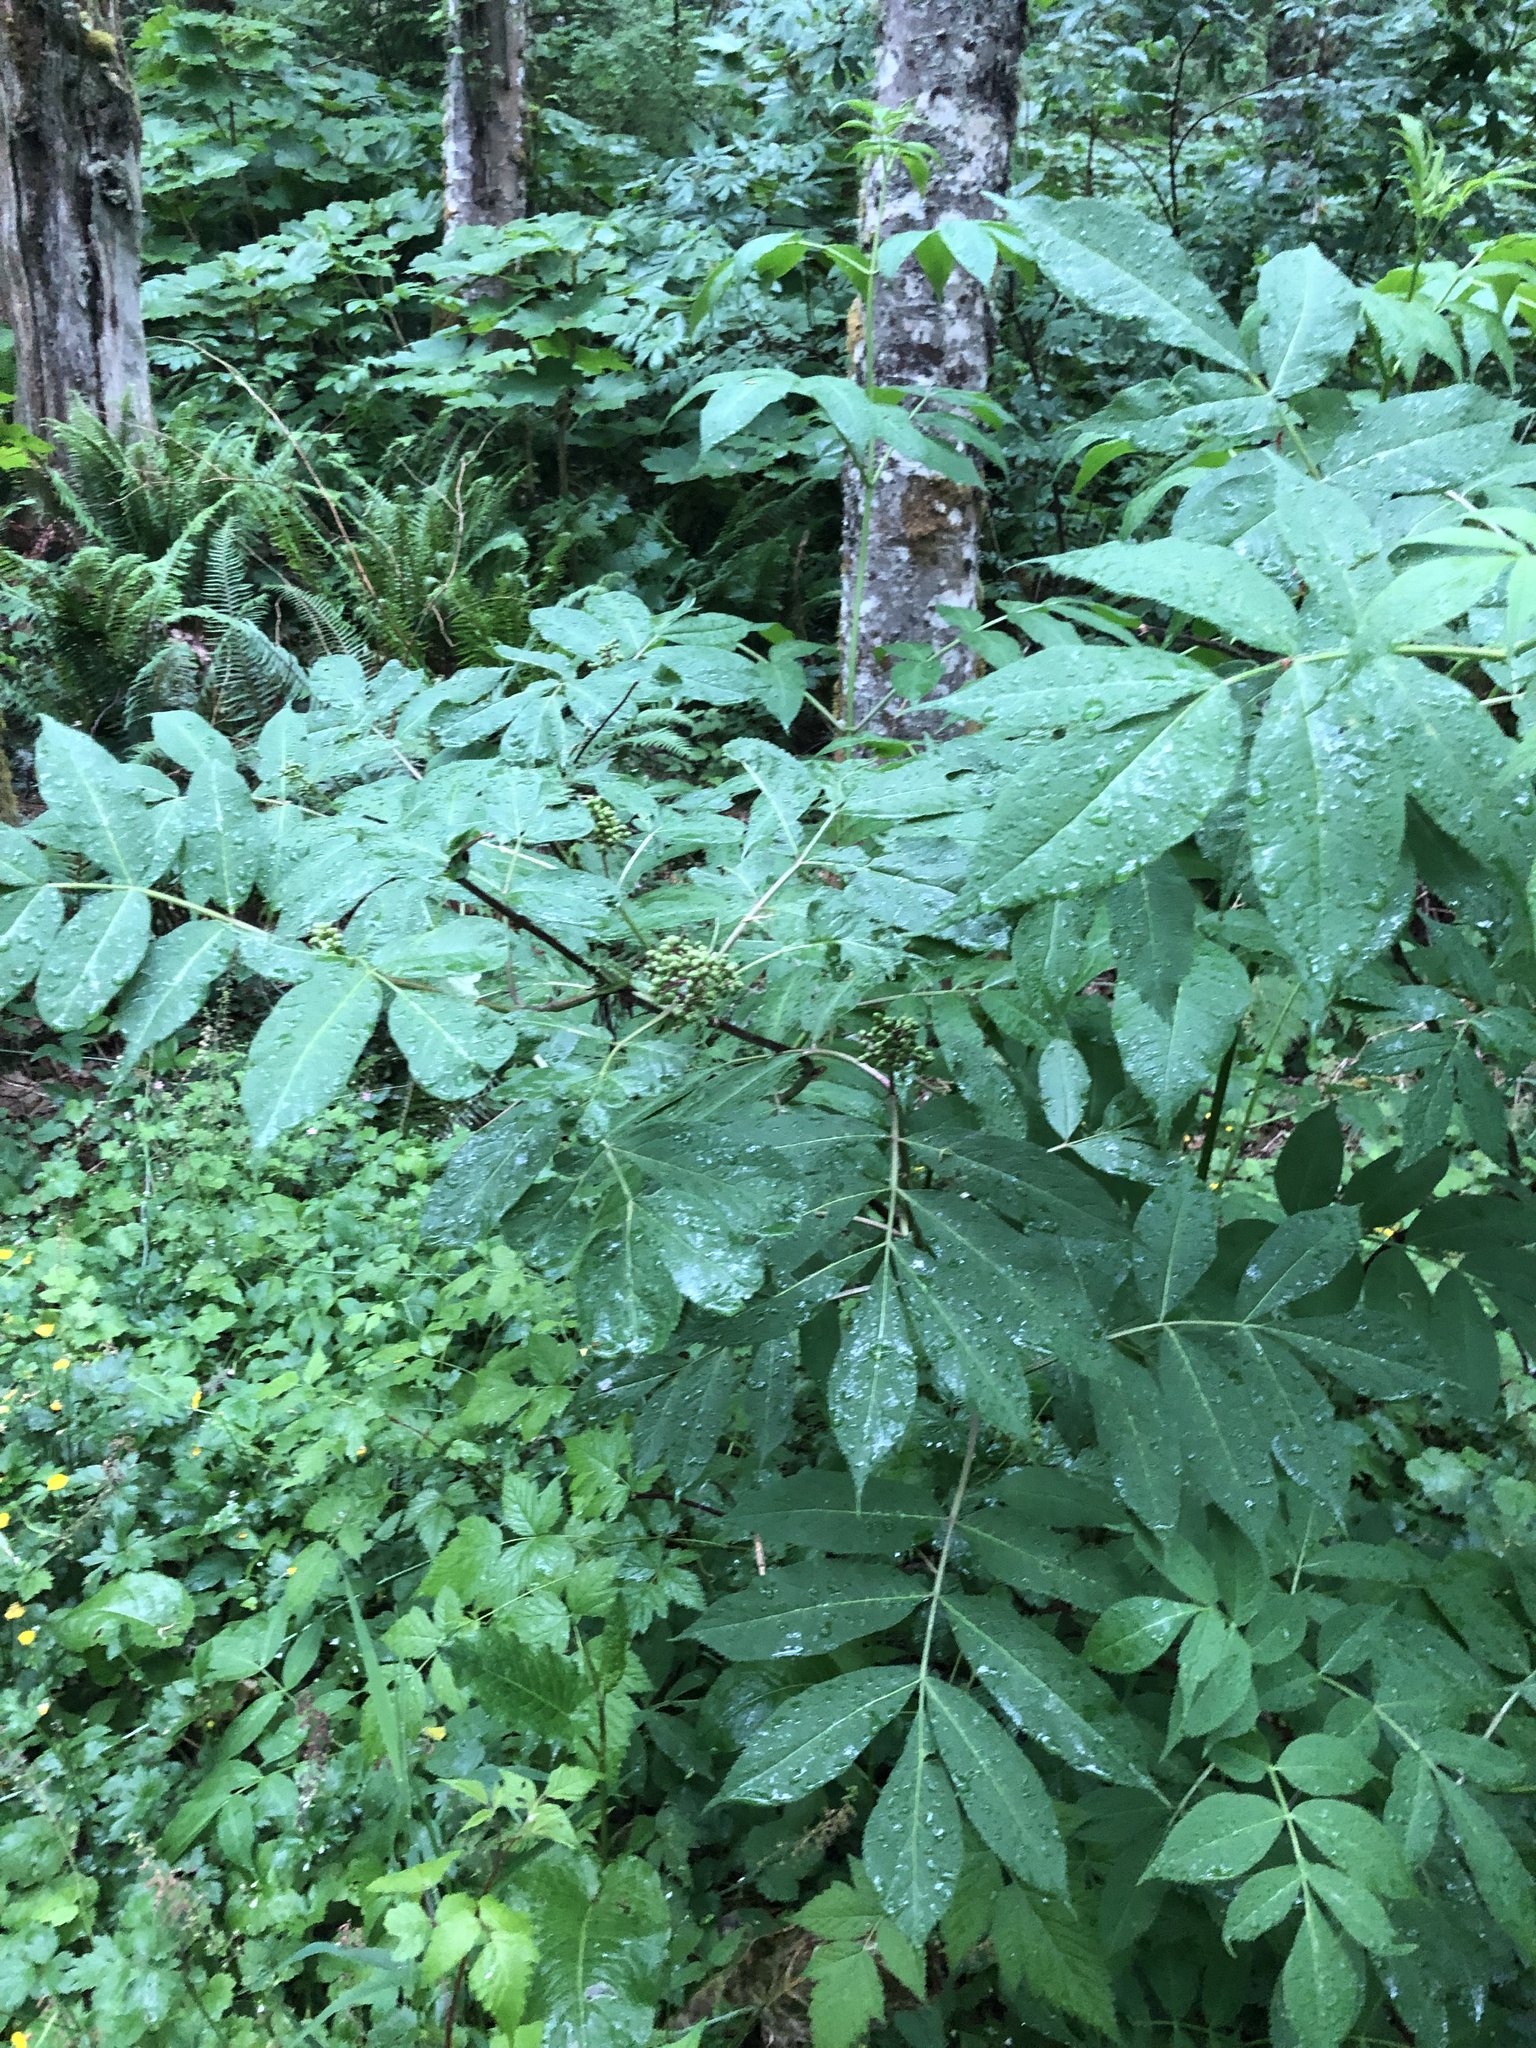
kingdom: Plantae
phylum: Tracheophyta
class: Magnoliopsida
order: Dipsacales
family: Viburnaceae
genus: Sambucus
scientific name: Sambucus racemosa
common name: Red-berried elder
